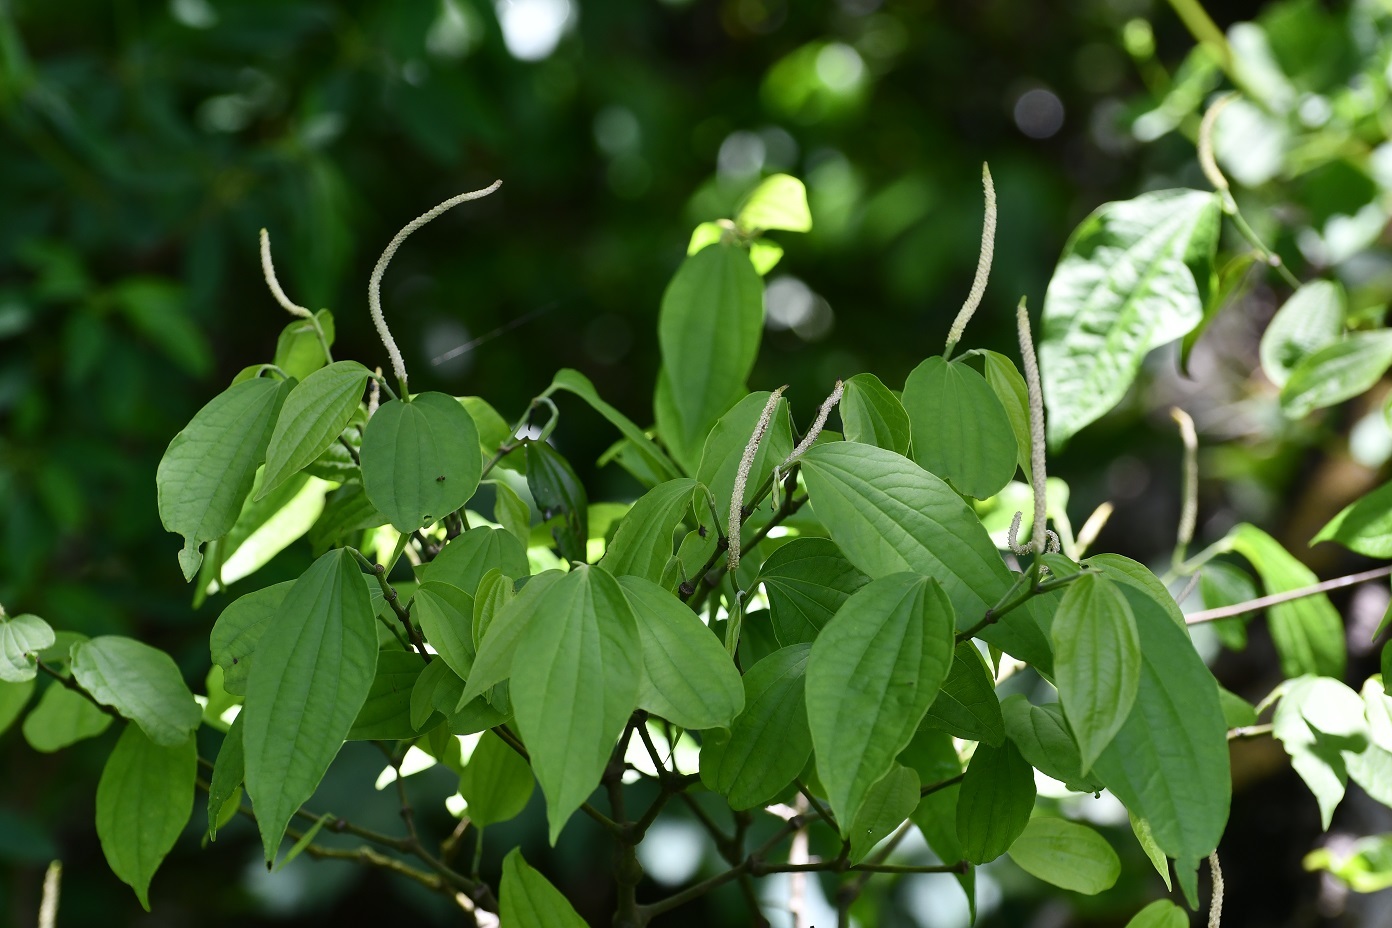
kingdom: Plantae
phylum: Tracheophyta
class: Magnoliopsida
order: Piperales
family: Piperaceae
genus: Piper
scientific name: Piper amalago
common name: Pepper-elder
